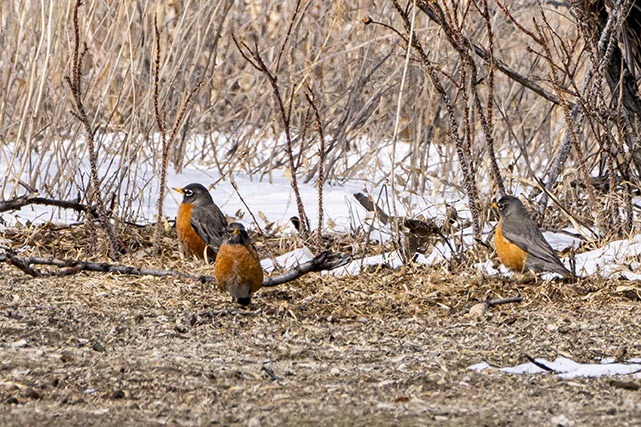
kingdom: Animalia
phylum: Chordata
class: Aves
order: Passeriformes
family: Turdidae
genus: Turdus
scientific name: Turdus migratorius
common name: American robin
